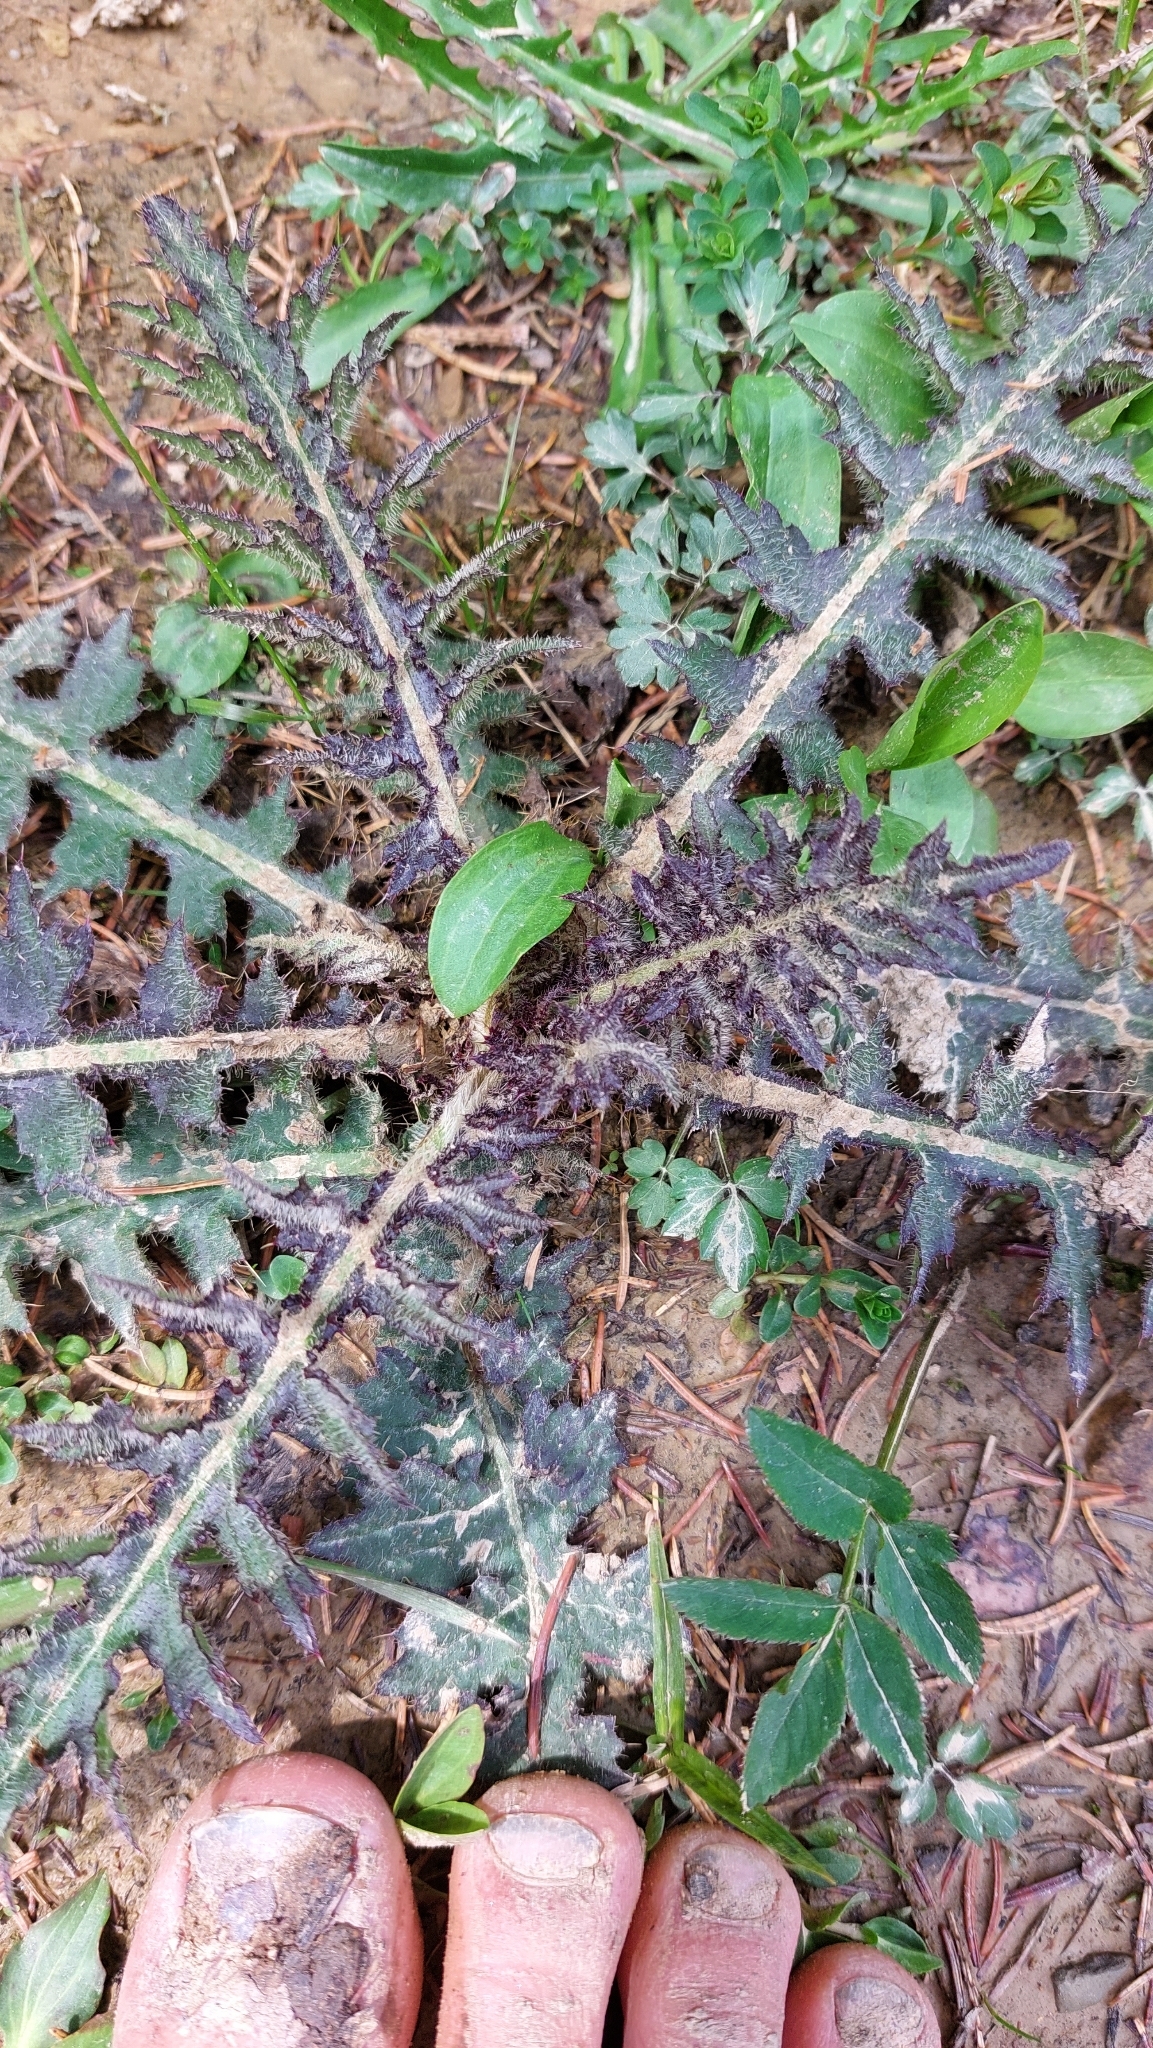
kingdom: Plantae
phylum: Tracheophyta
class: Magnoliopsida
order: Asterales
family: Asteraceae
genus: Cirsium
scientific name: Cirsium palustre
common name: Marsh thistle
